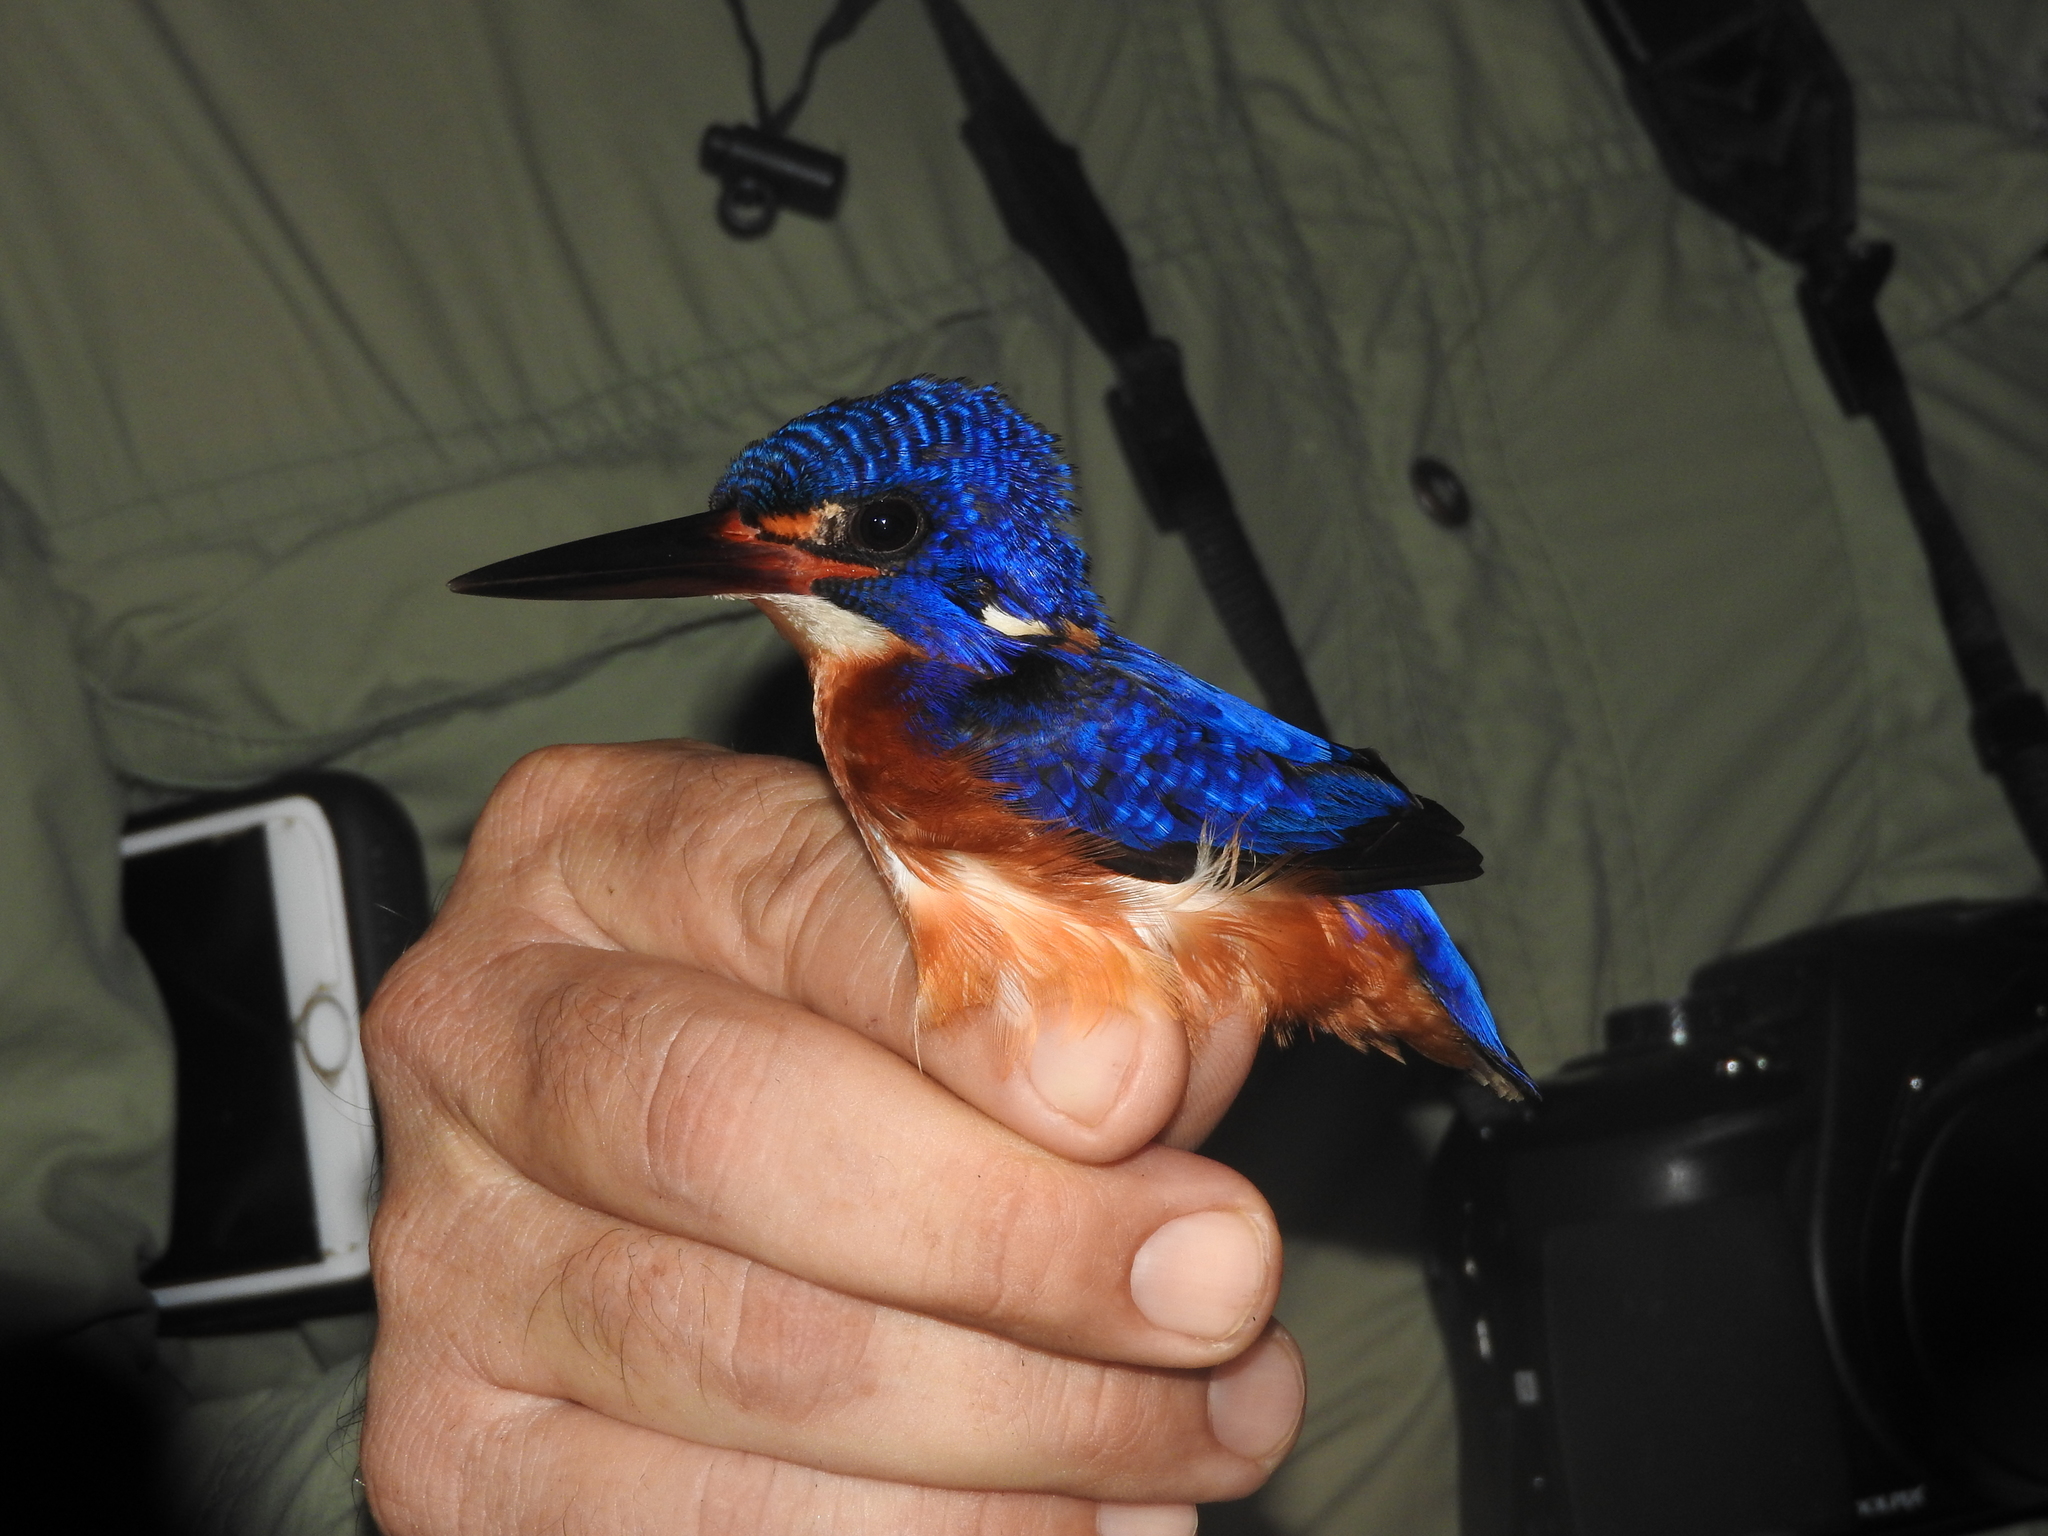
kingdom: Animalia
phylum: Chordata
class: Aves
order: Coraciiformes
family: Alcedinidae
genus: Alcedo
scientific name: Alcedo meninting
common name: Blue-eared kingfisher
